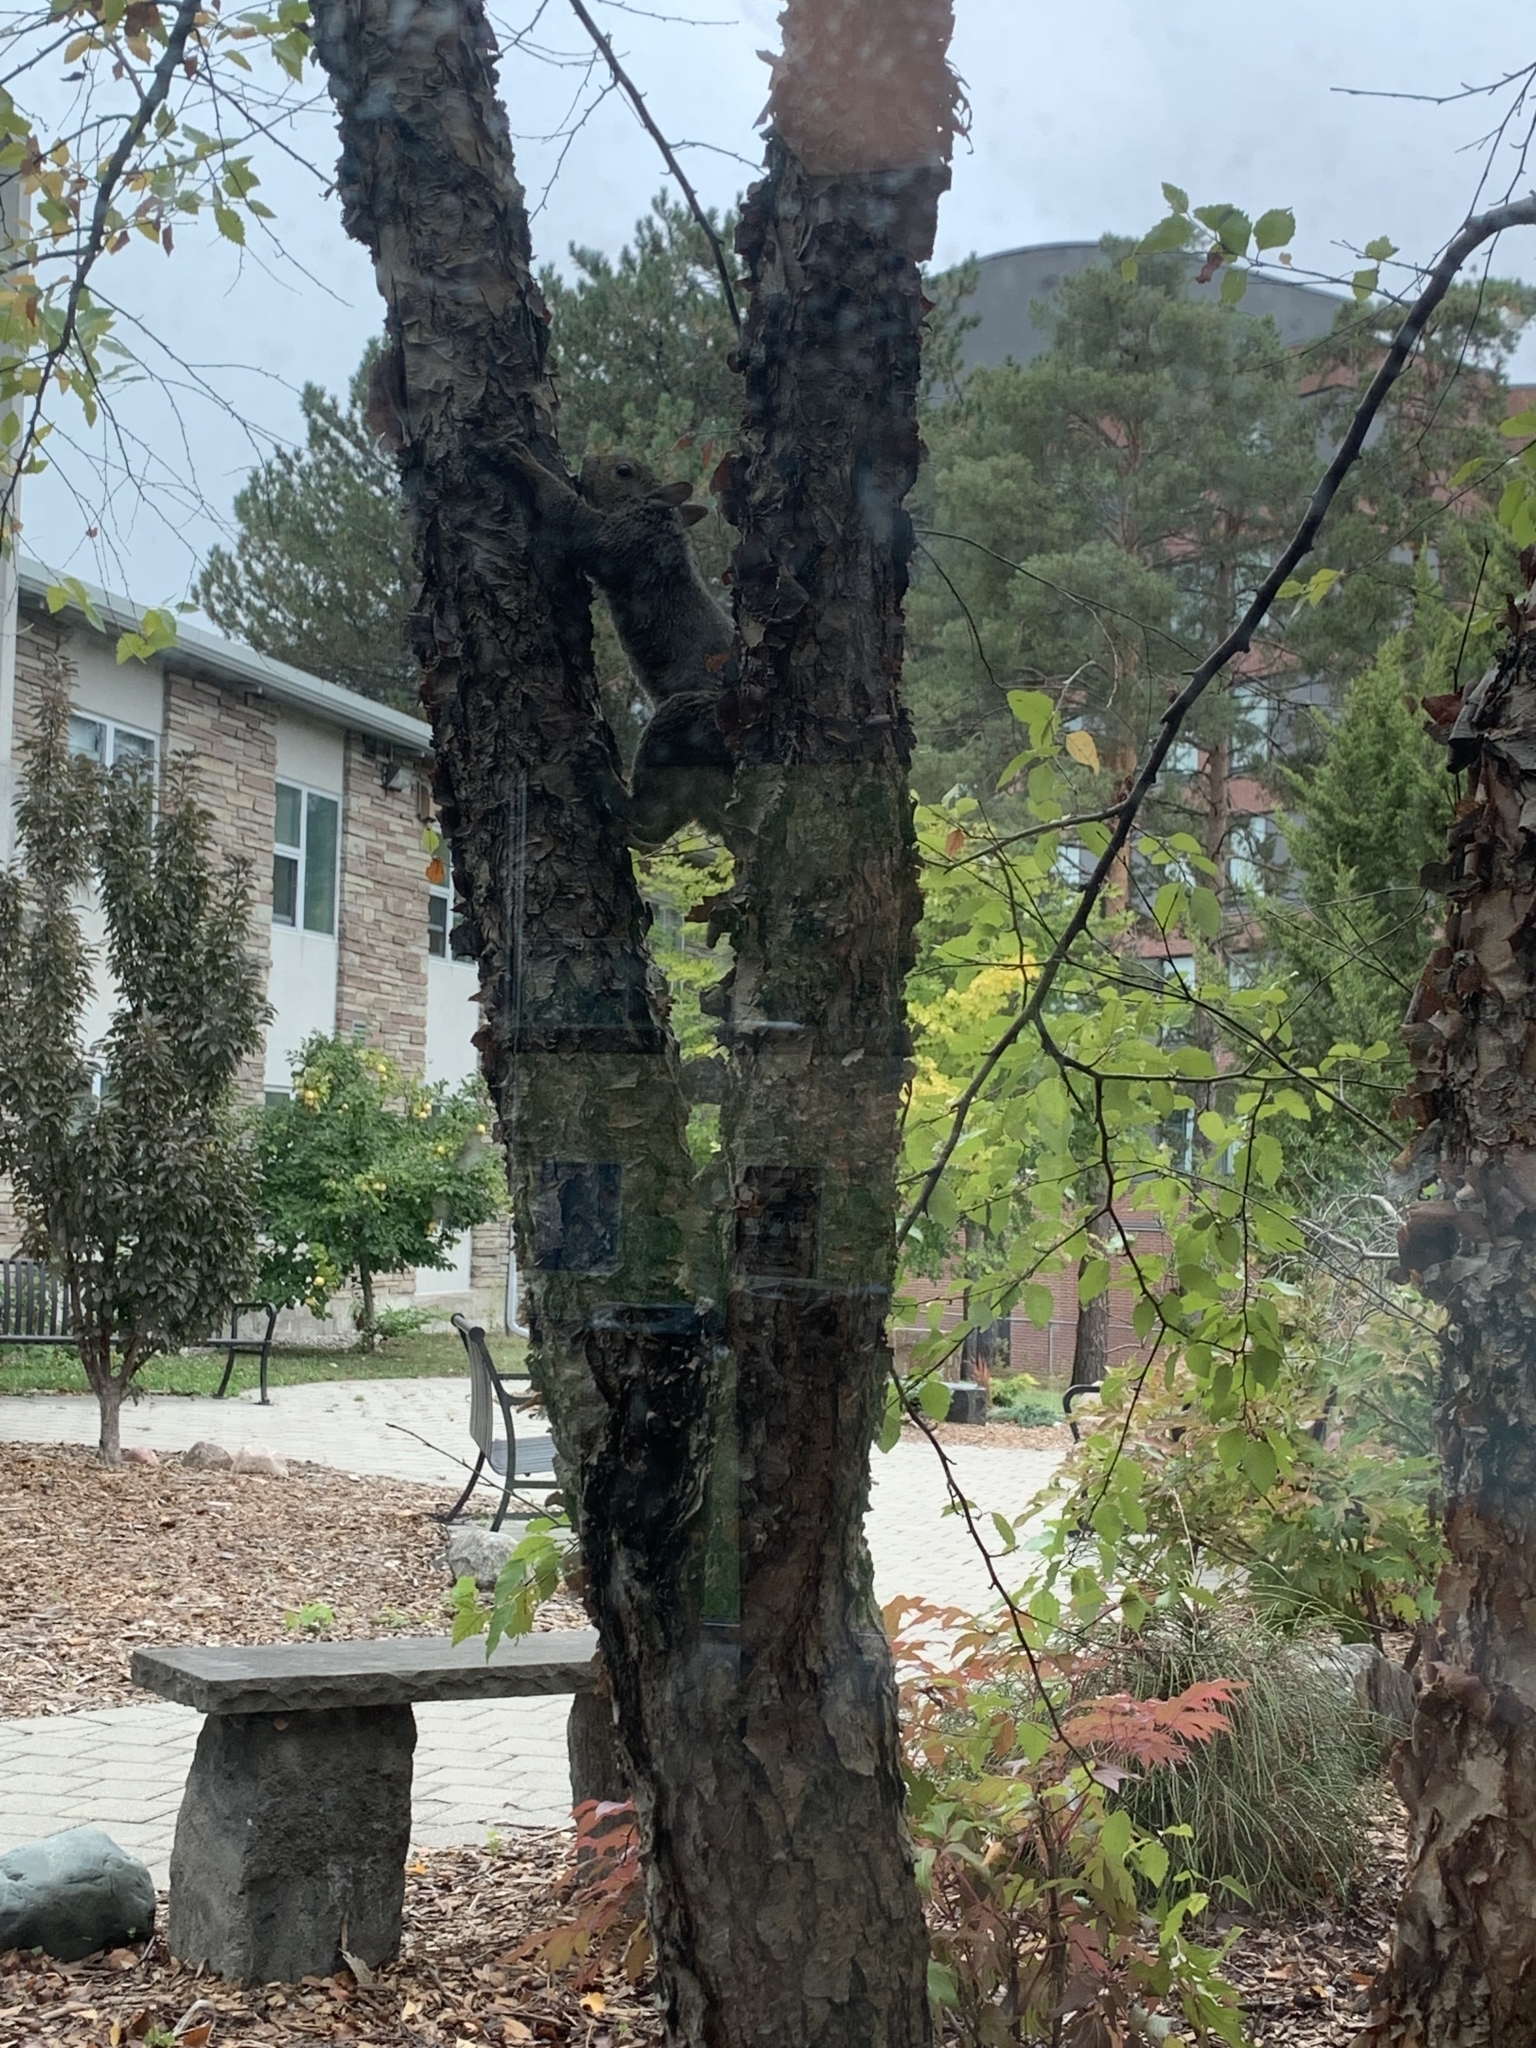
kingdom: Animalia
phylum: Chordata
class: Mammalia
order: Rodentia
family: Sciuridae
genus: Sciurus
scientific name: Sciurus carolinensis
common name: Eastern gray squirrel
